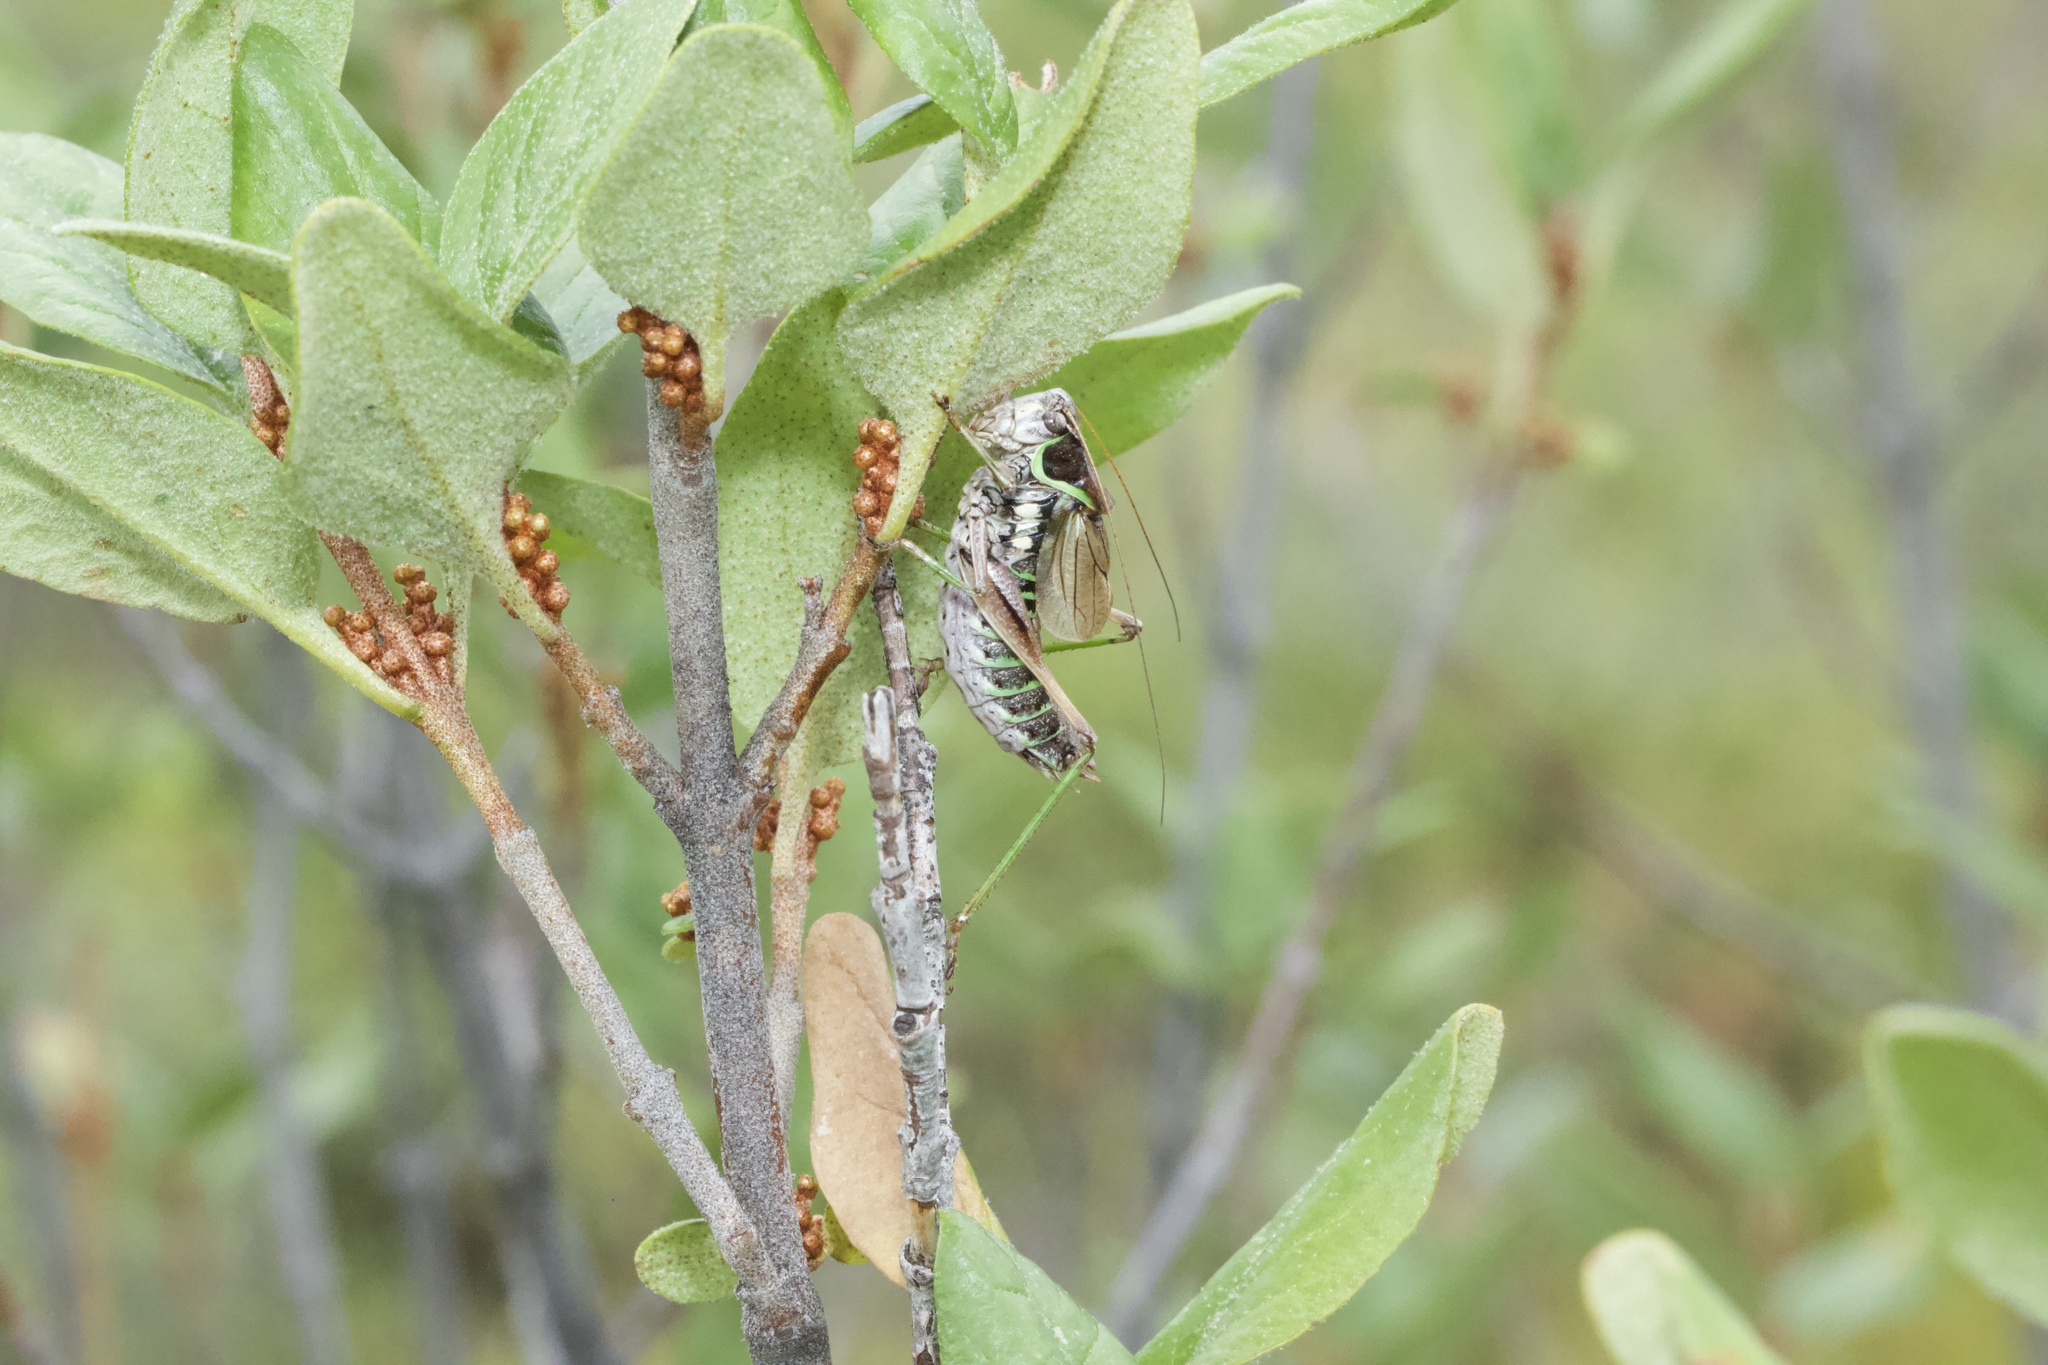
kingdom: Animalia
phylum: Arthropoda
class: Insecta
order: Orthoptera
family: Tettigoniidae
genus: Sphagniana
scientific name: Sphagniana sphagnorum
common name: Bog katydid
